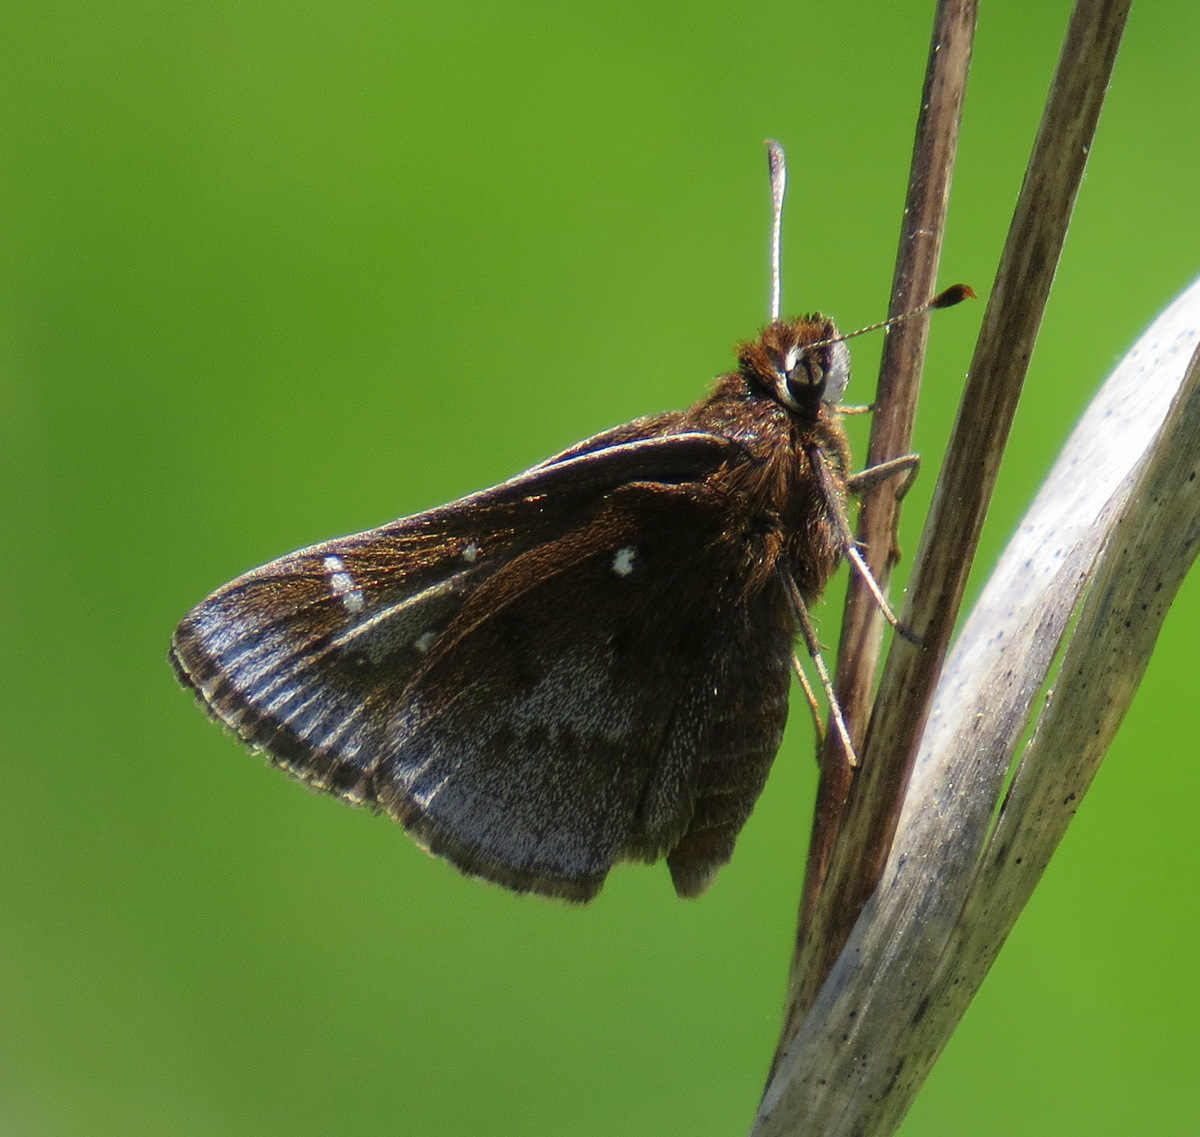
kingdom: Animalia
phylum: Arthropoda
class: Insecta
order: Lepidoptera
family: Hesperiidae
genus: Atrytonopsis
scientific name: Atrytonopsis hianna
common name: Dusted skipper
